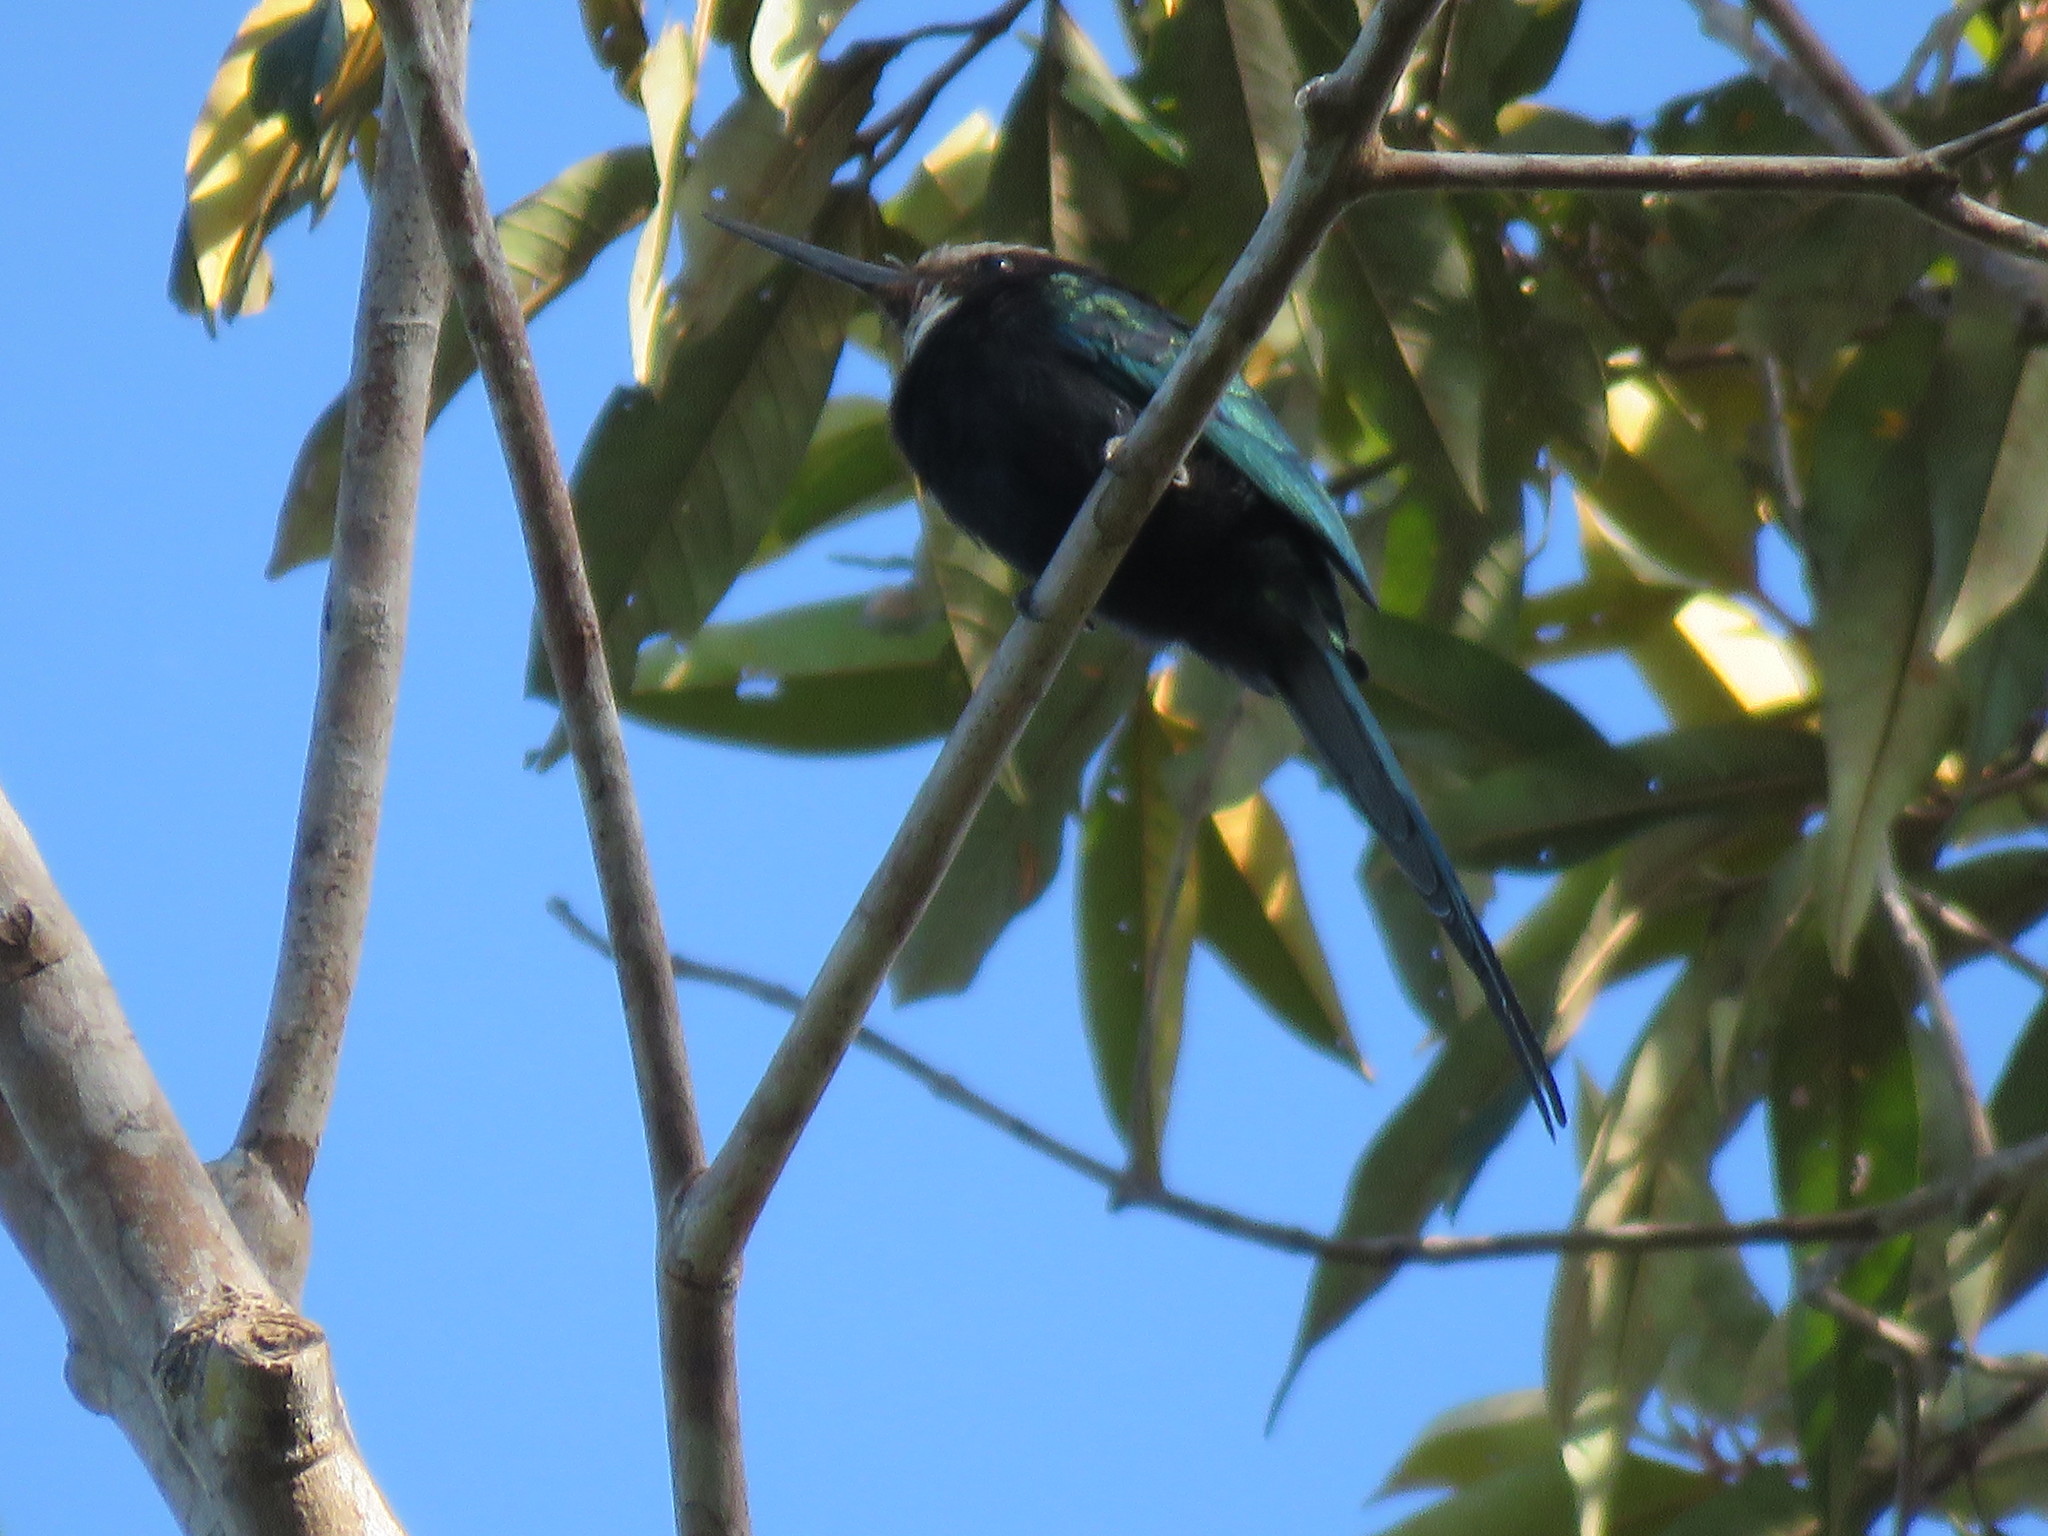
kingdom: Animalia
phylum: Chordata
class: Aves
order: Piciformes
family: Galbulidae
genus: Galbula
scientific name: Galbula dea
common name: Paradise jacamar
